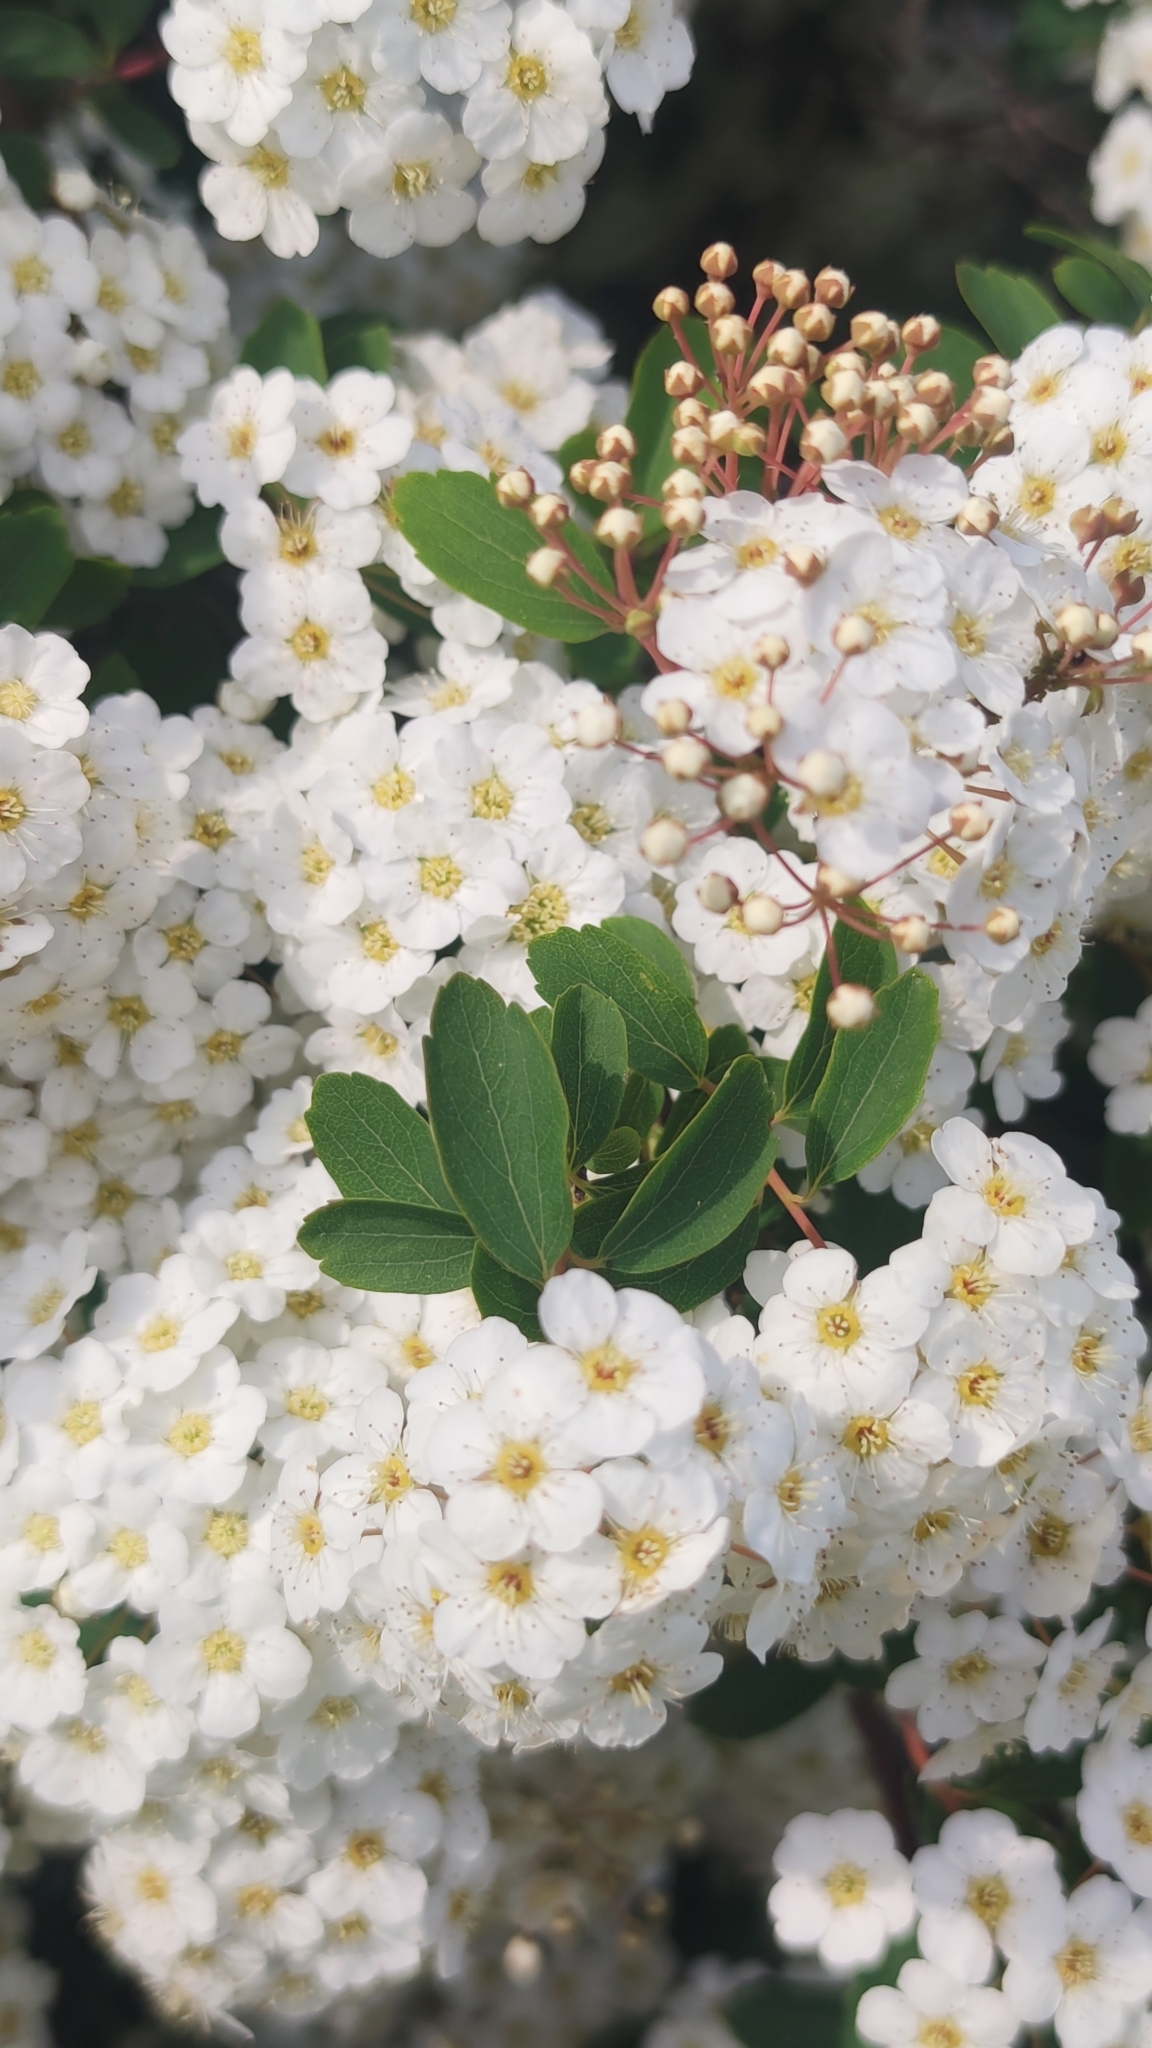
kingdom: Plantae
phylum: Tracheophyta
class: Magnoliopsida
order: Rosales
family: Rosaceae
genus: Spiraea
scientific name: Spiraea vanhouttei
